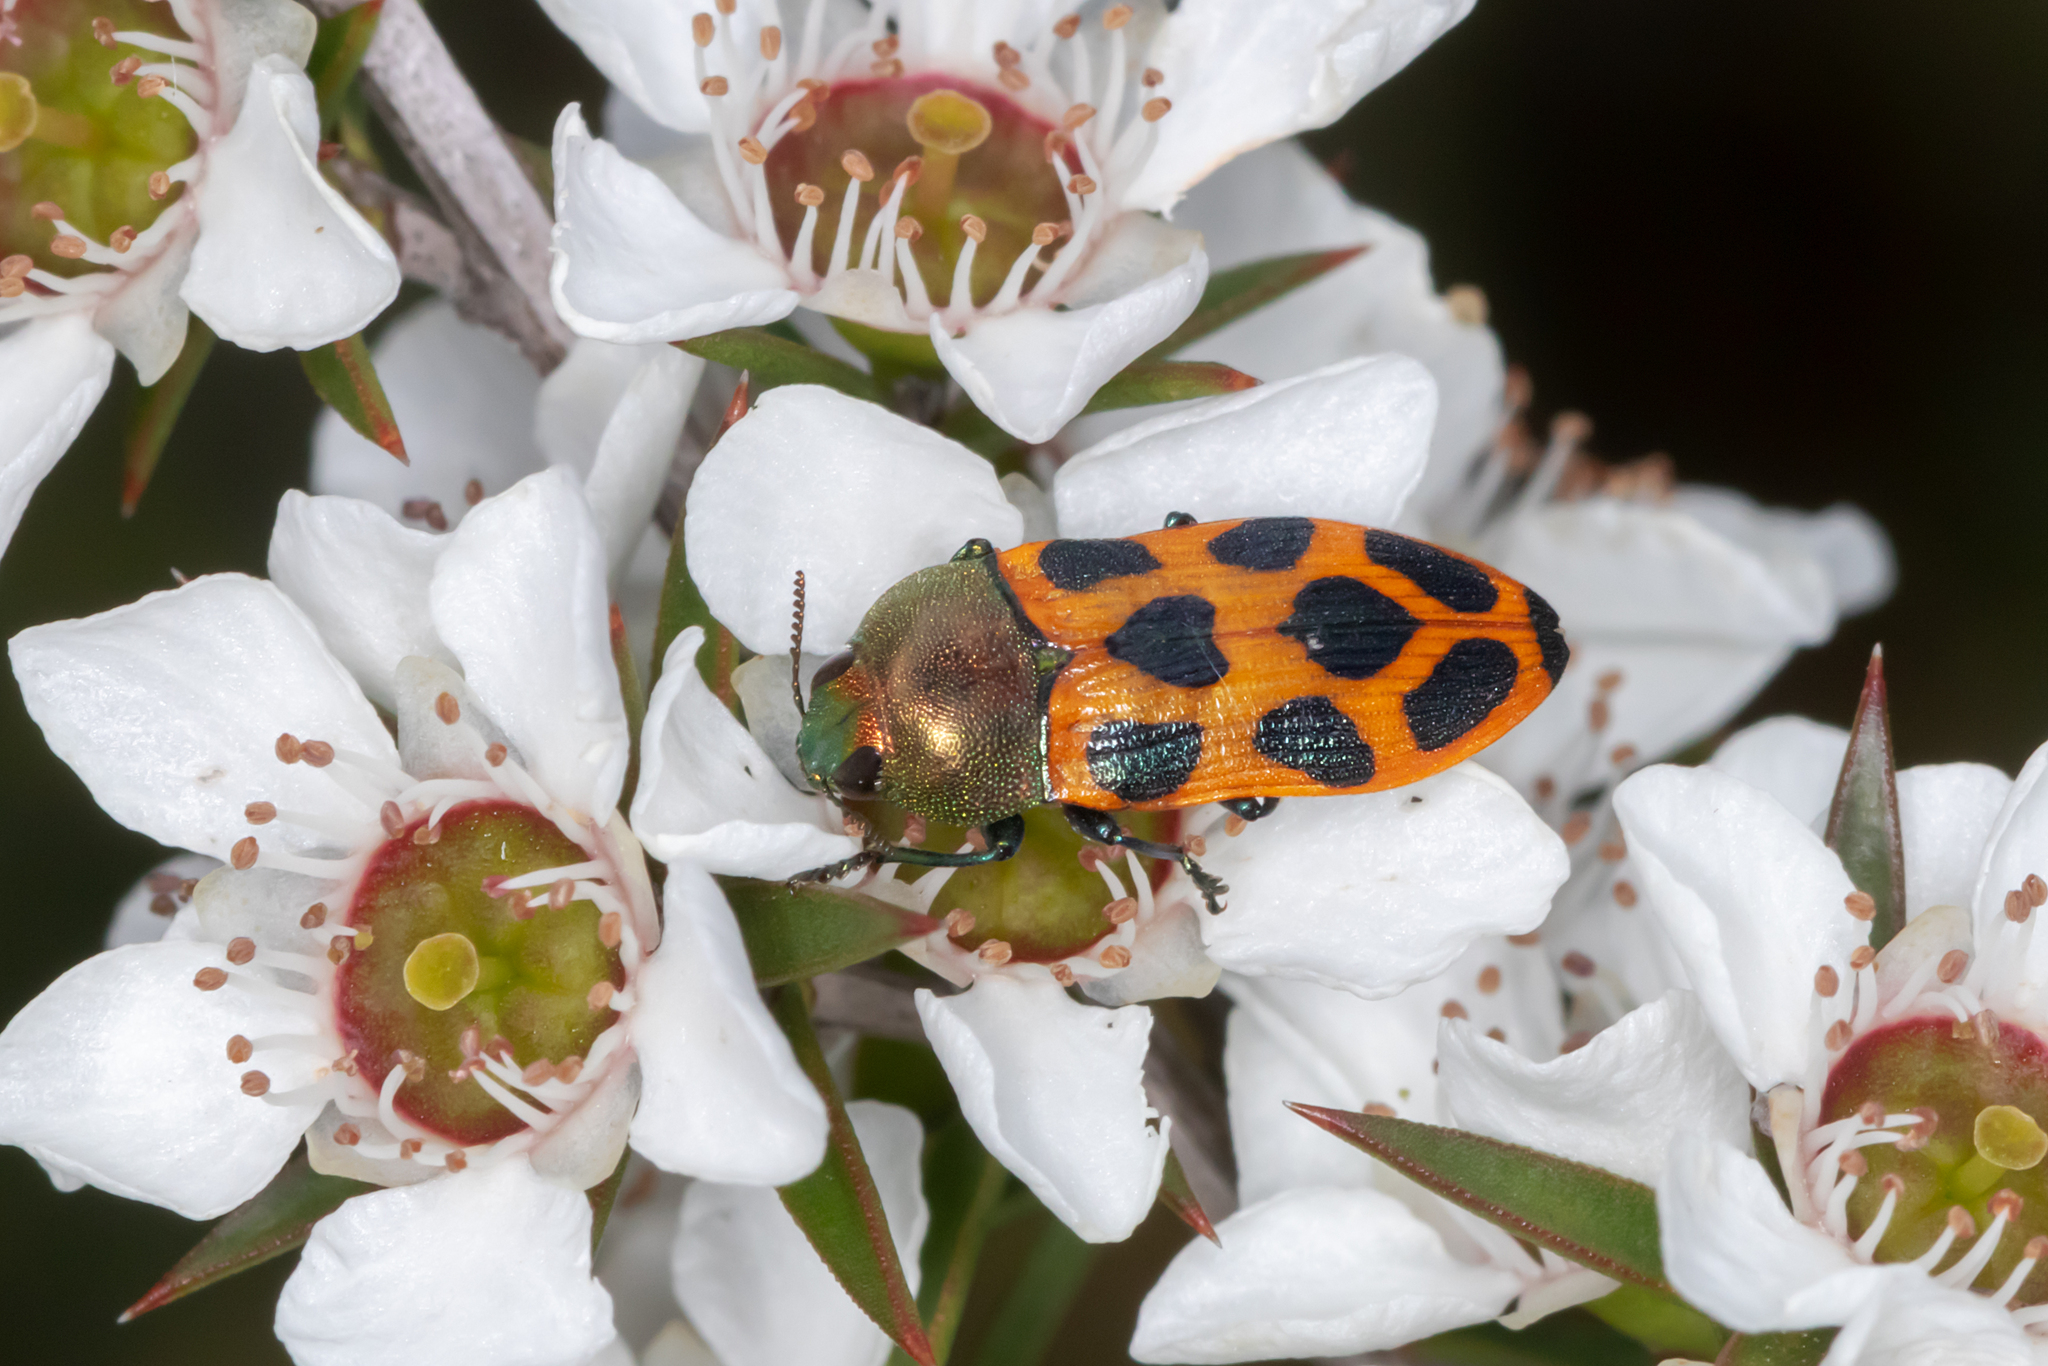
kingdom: Animalia
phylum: Arthropoda
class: Insecta
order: Coleoptera
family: Buprestidae
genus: Castiarina
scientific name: Castiarina octomaculata
